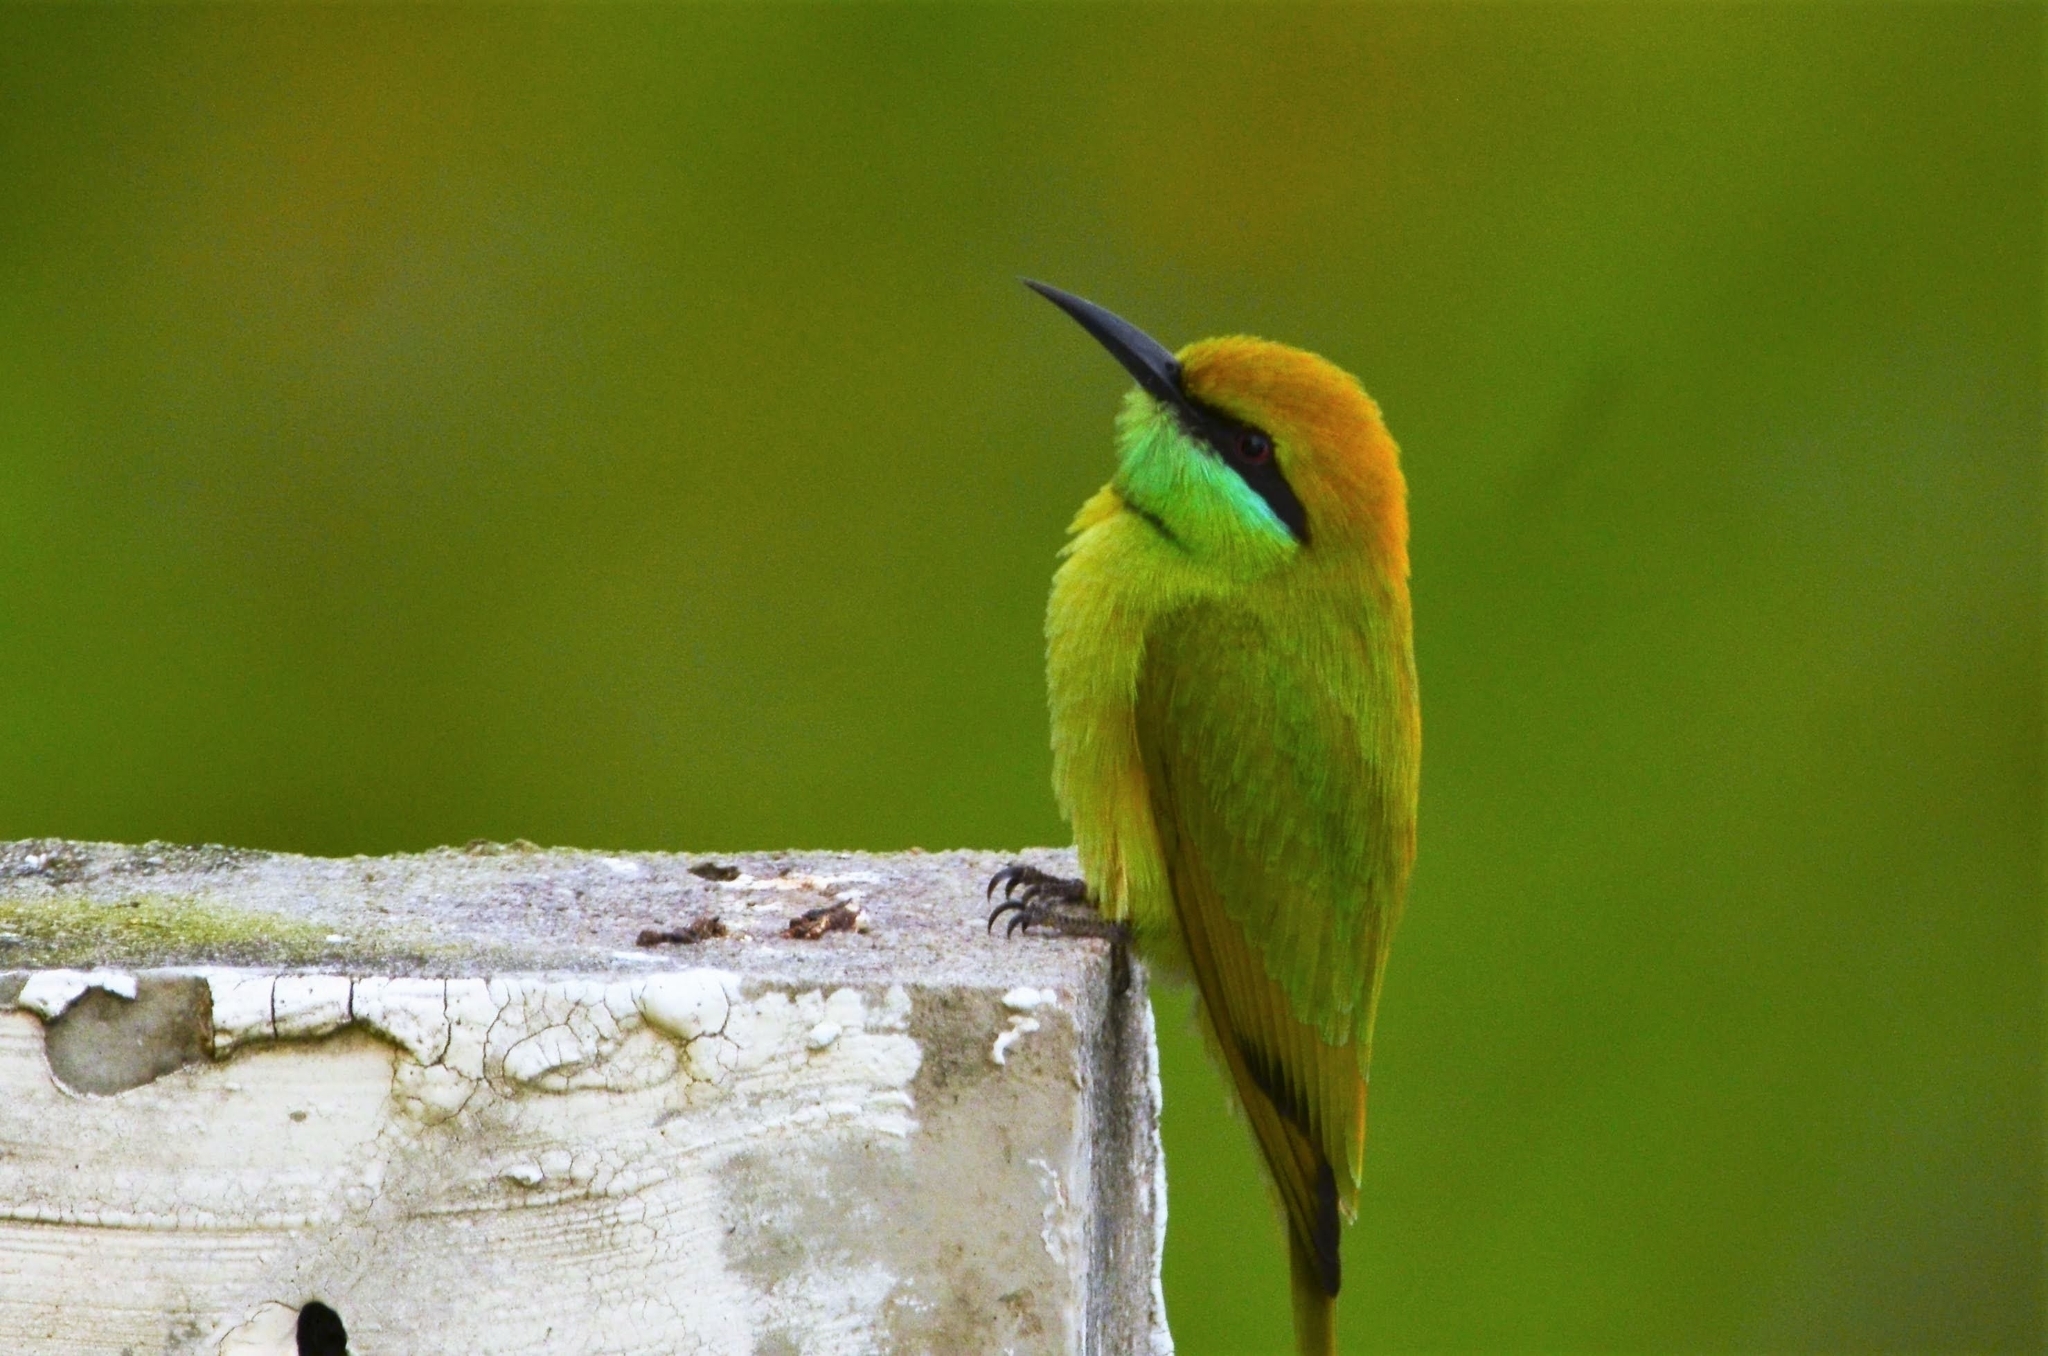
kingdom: Animalia
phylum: Chordata
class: Aves
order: Coraciiformes
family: Meropidae
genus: Merops
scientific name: Merops orientalis
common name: Green bee-eater
